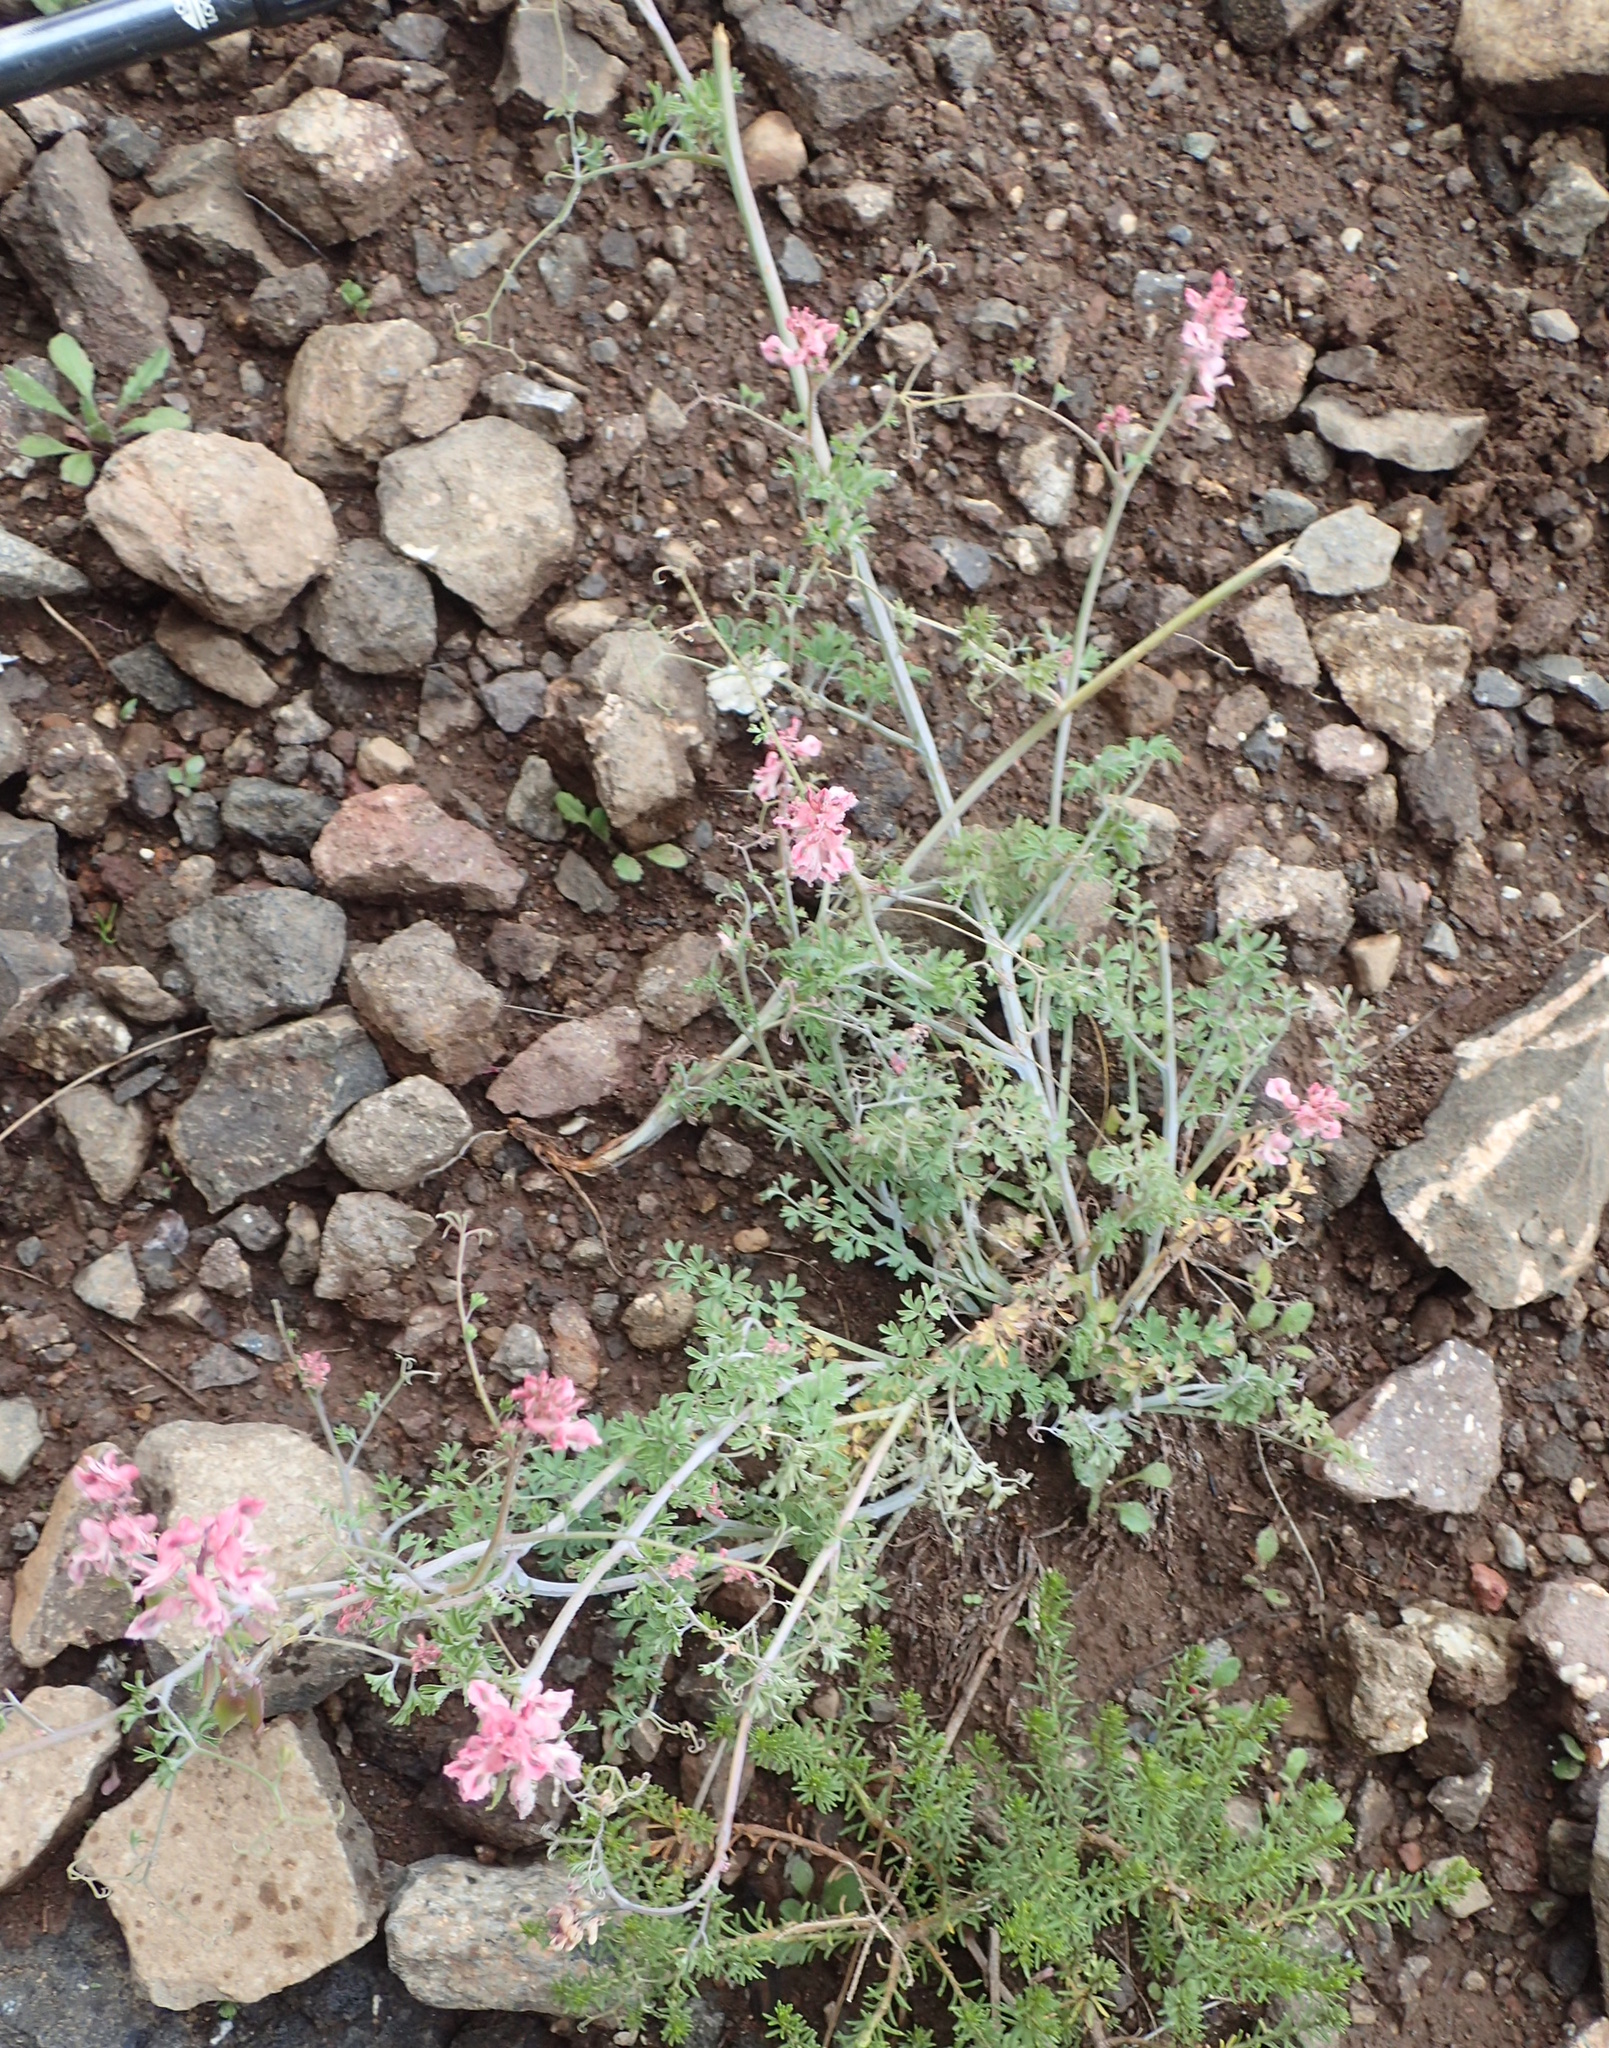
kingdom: Plantae
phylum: Tracheophyta
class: Magnoliopsida
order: Ranunculales
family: Papaveraceae
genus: Cysticapnos
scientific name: Cysticapnos pruinosa
